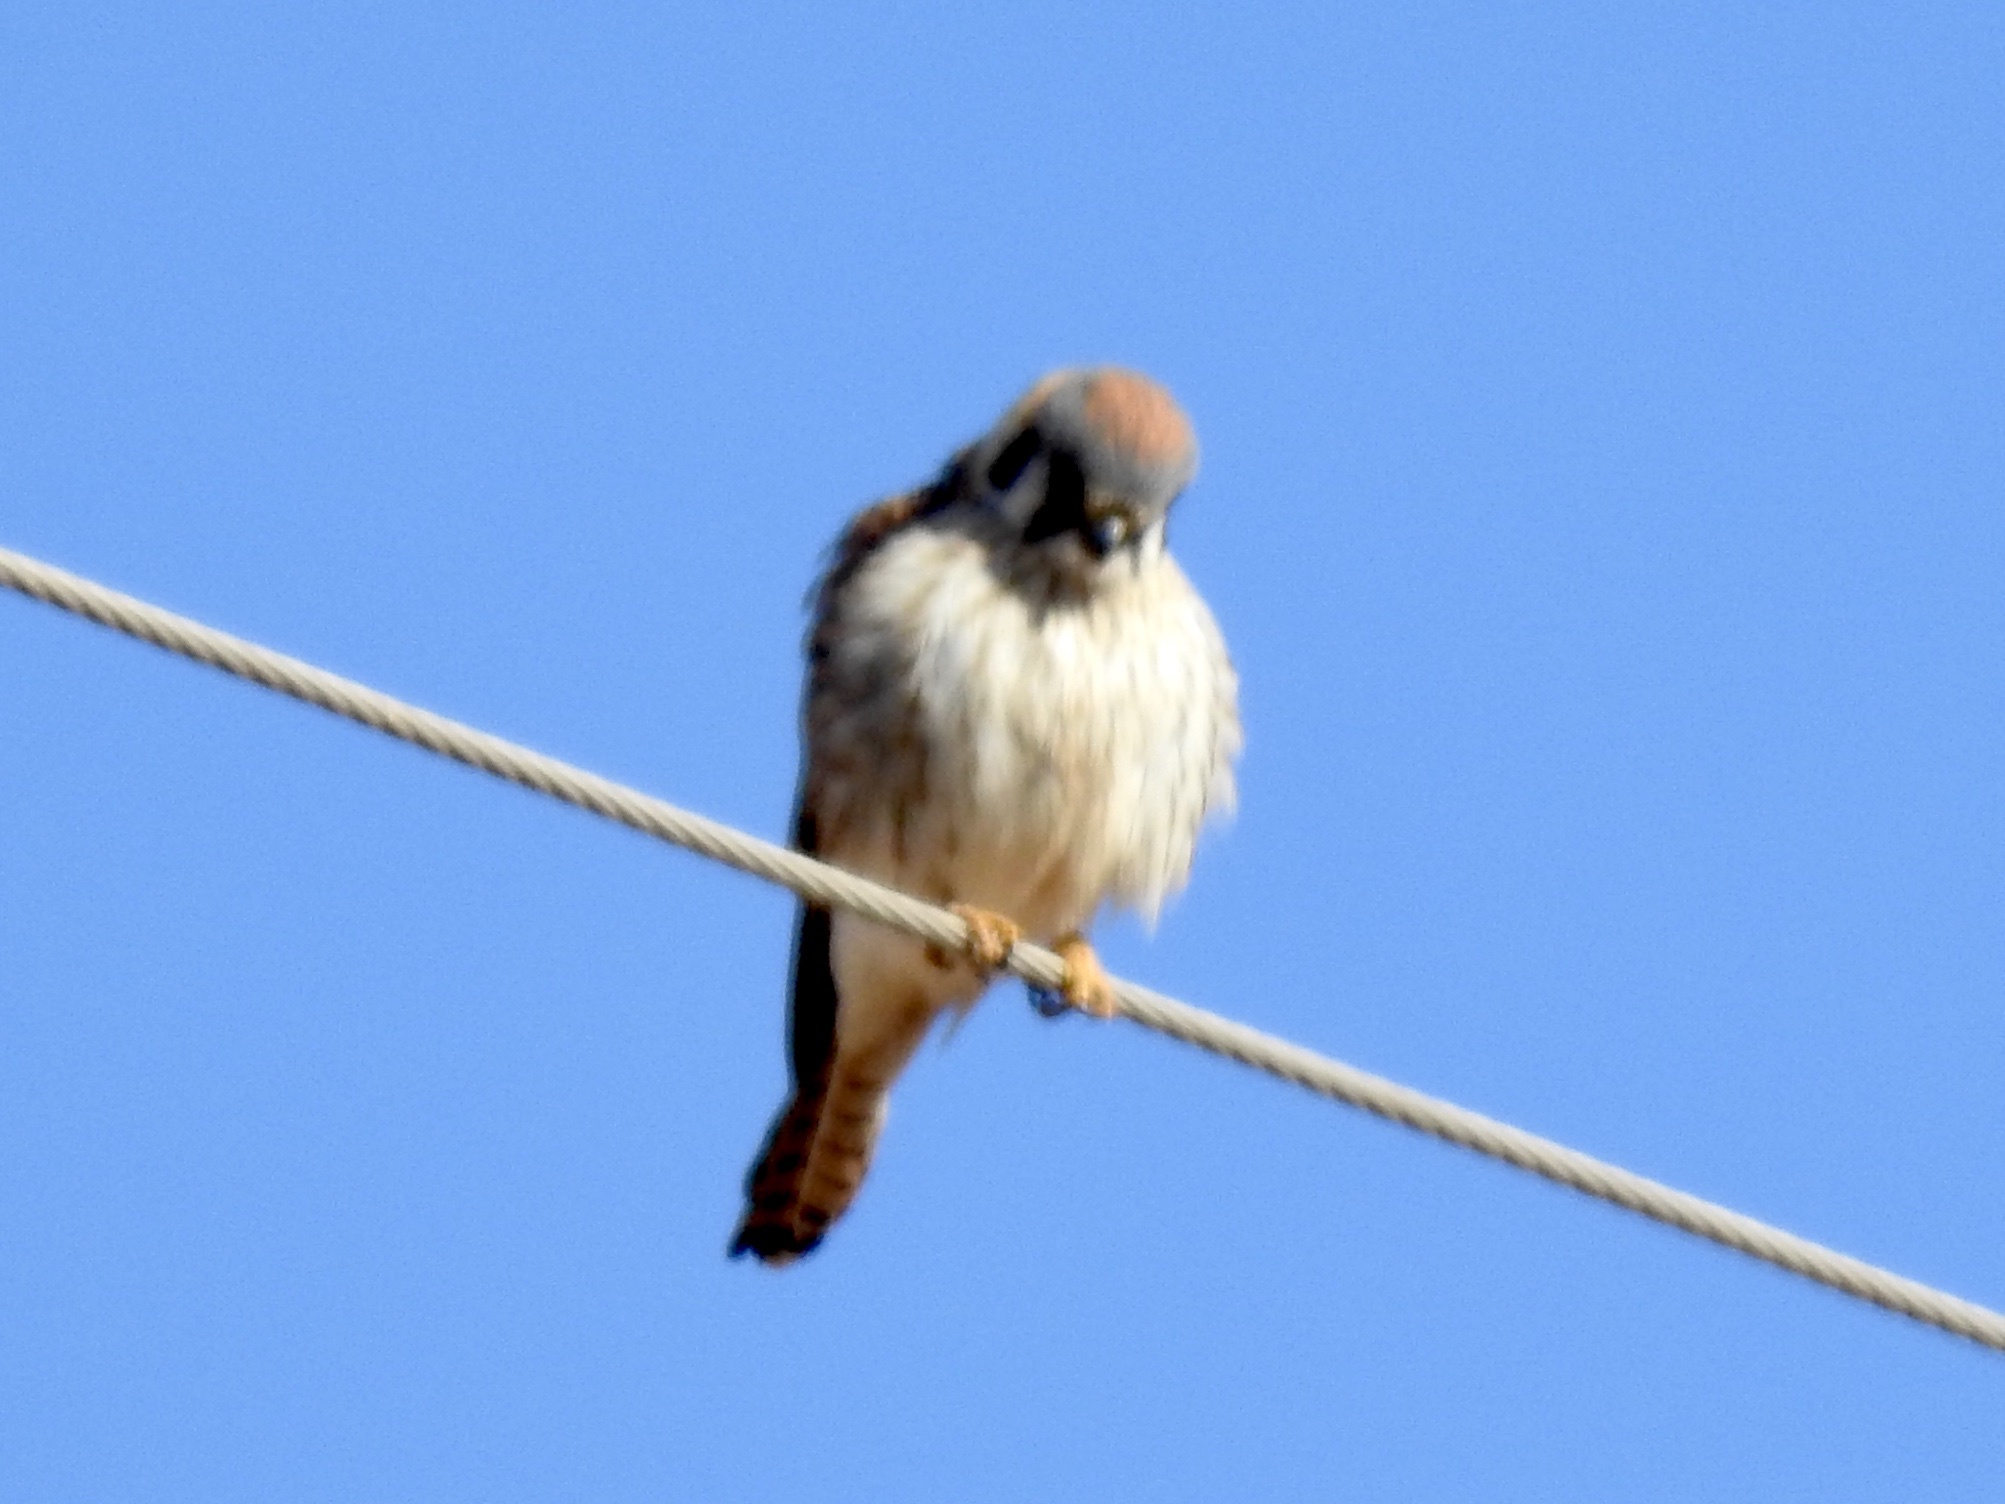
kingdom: Animalia
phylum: Chordata
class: Aves
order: Falconiformes
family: Falconidae
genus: Falco
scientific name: Falco sparverius
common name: American kestrel
